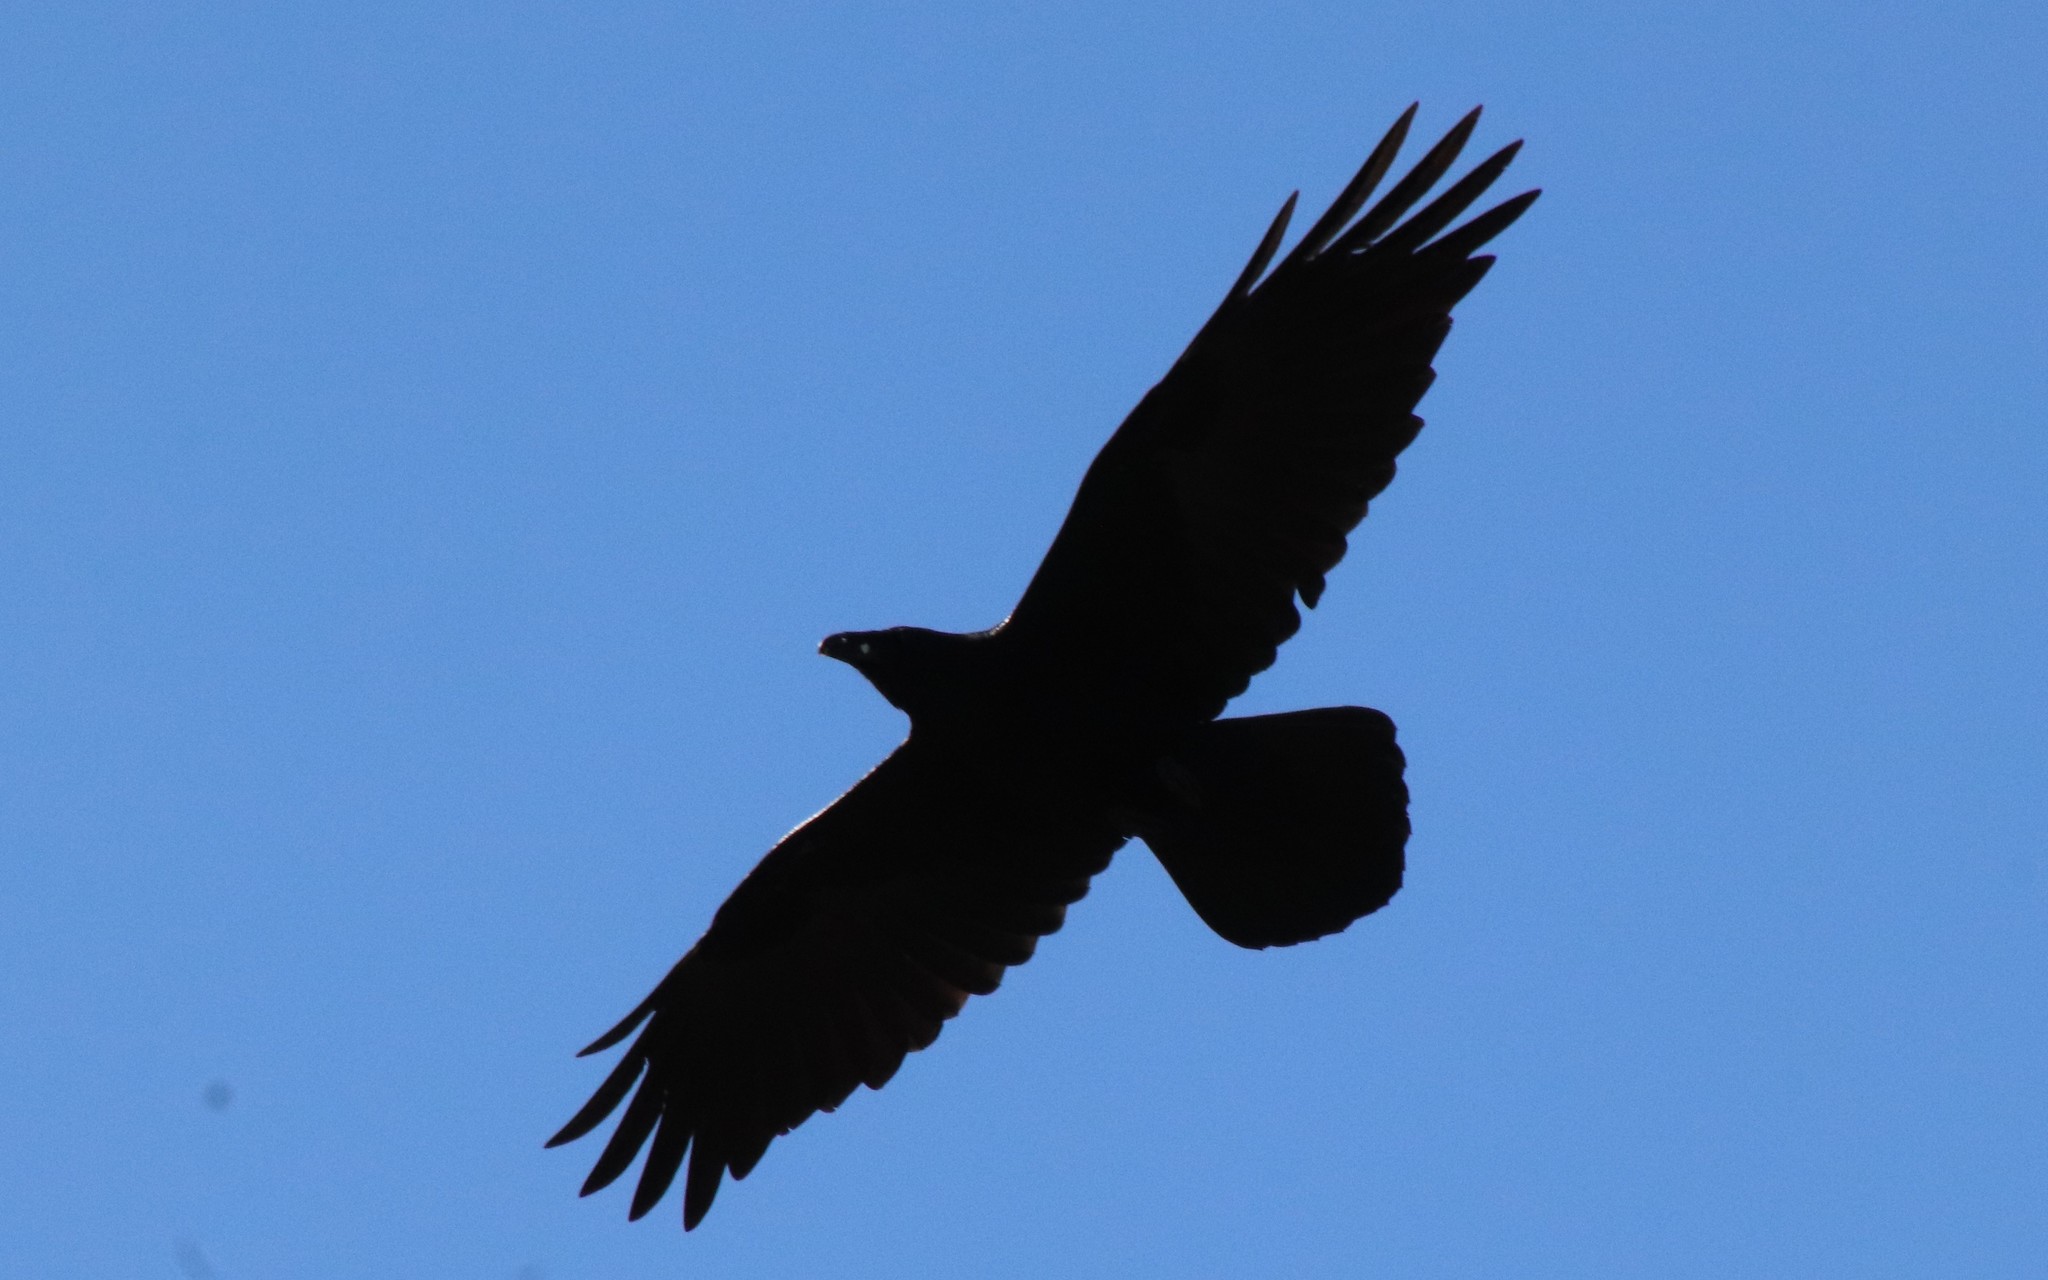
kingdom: Animalia
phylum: Chordata
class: Aves
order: Passeriformes
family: Corvidae
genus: Corvus
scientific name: Corvus corax
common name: Common raven
